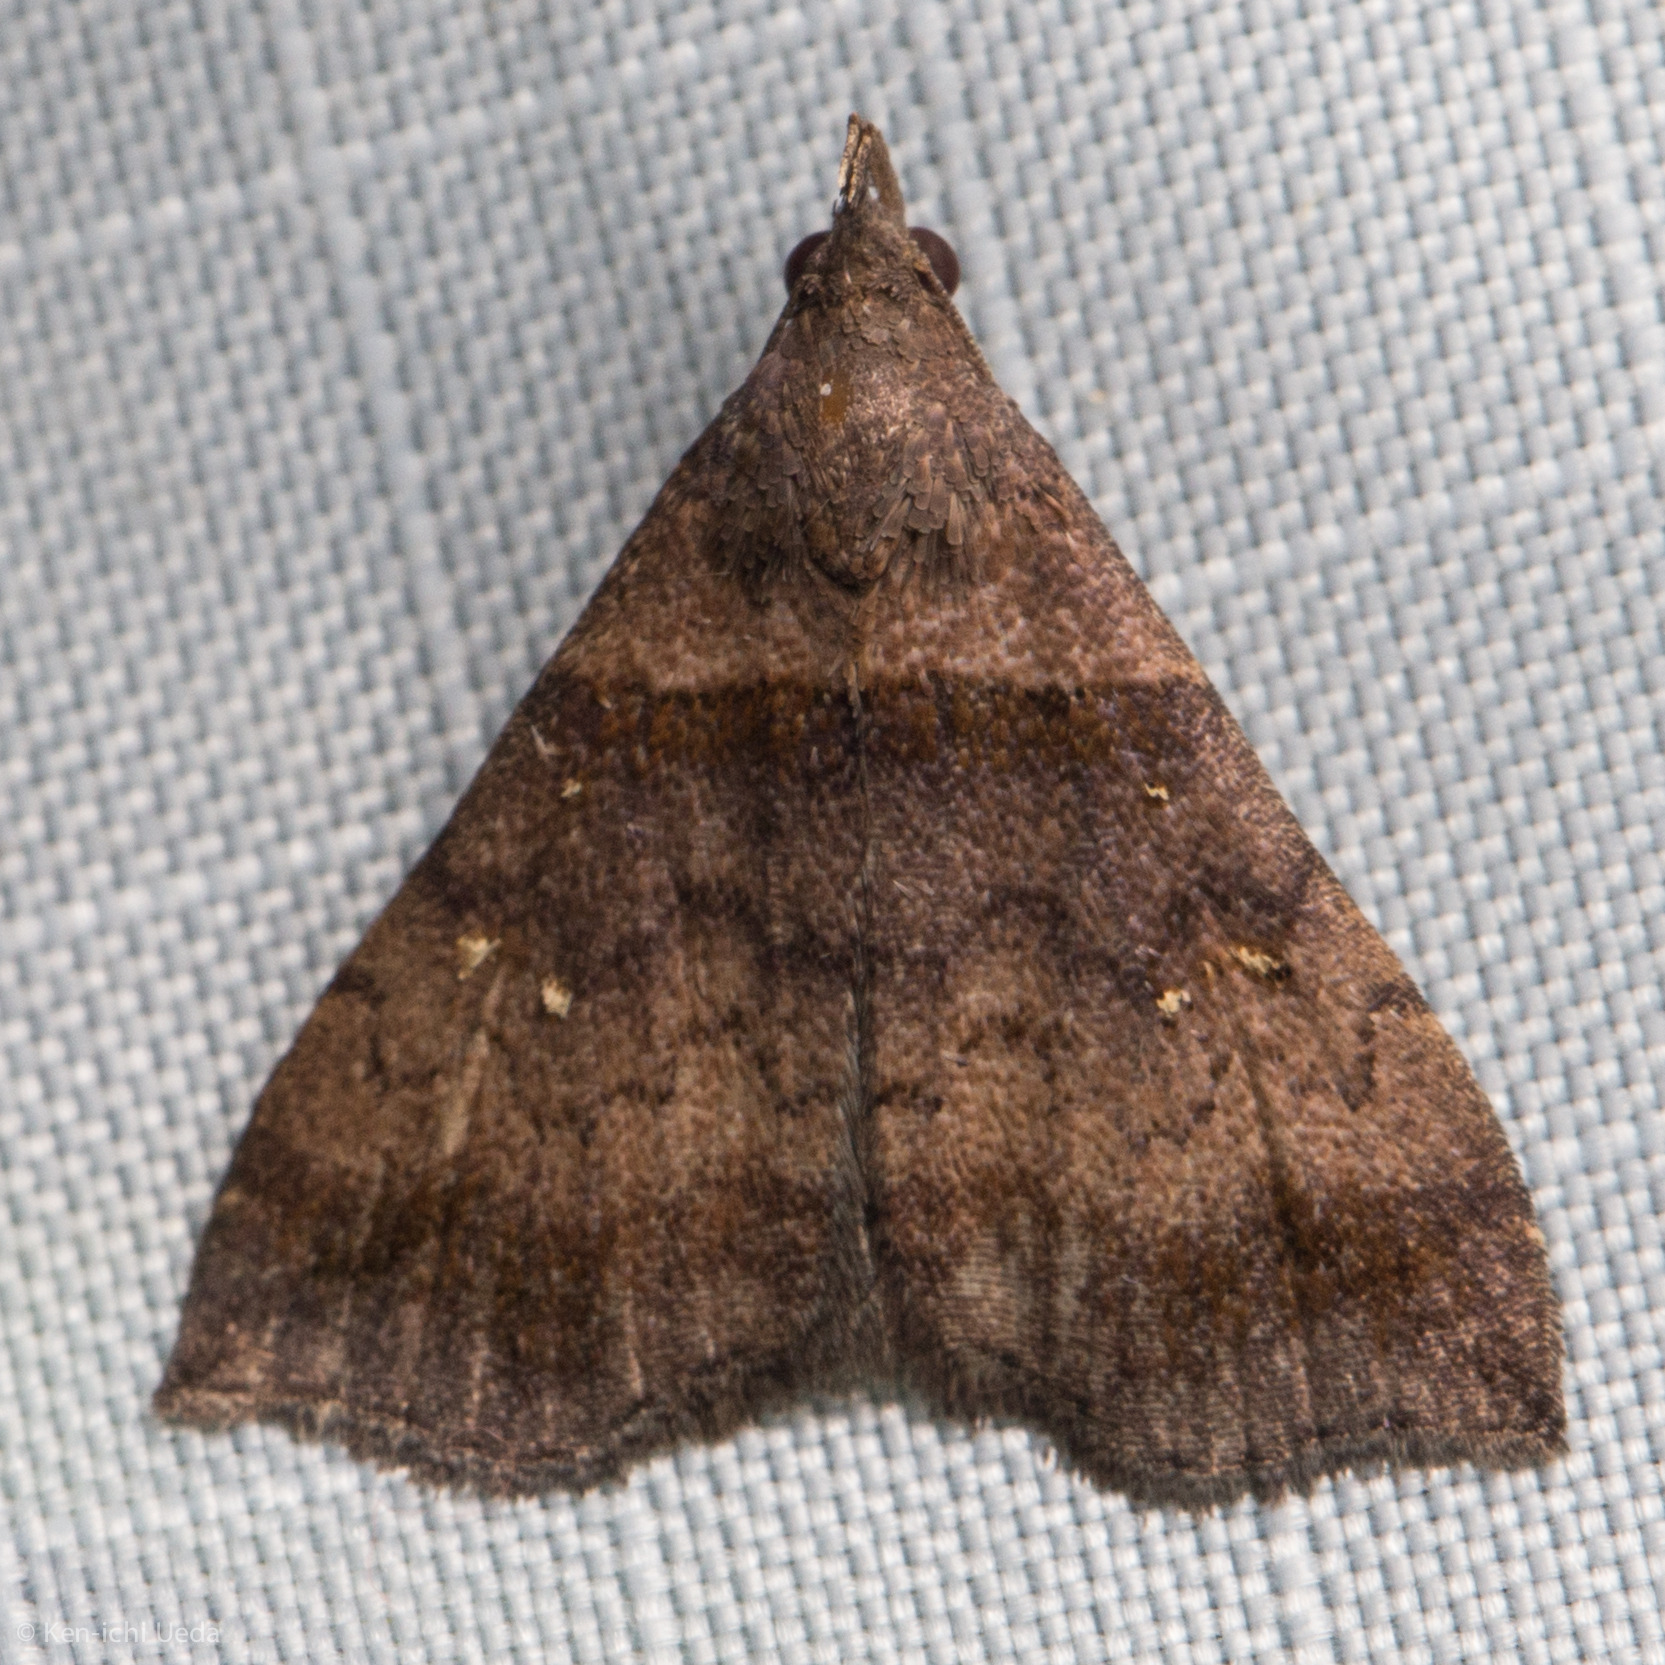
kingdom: Animalia
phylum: Arthropoda
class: Insecta
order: Lepidoptera
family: Erebidae
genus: Lascoria
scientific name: Lascoria ambigualis
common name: Ambiguous moth
